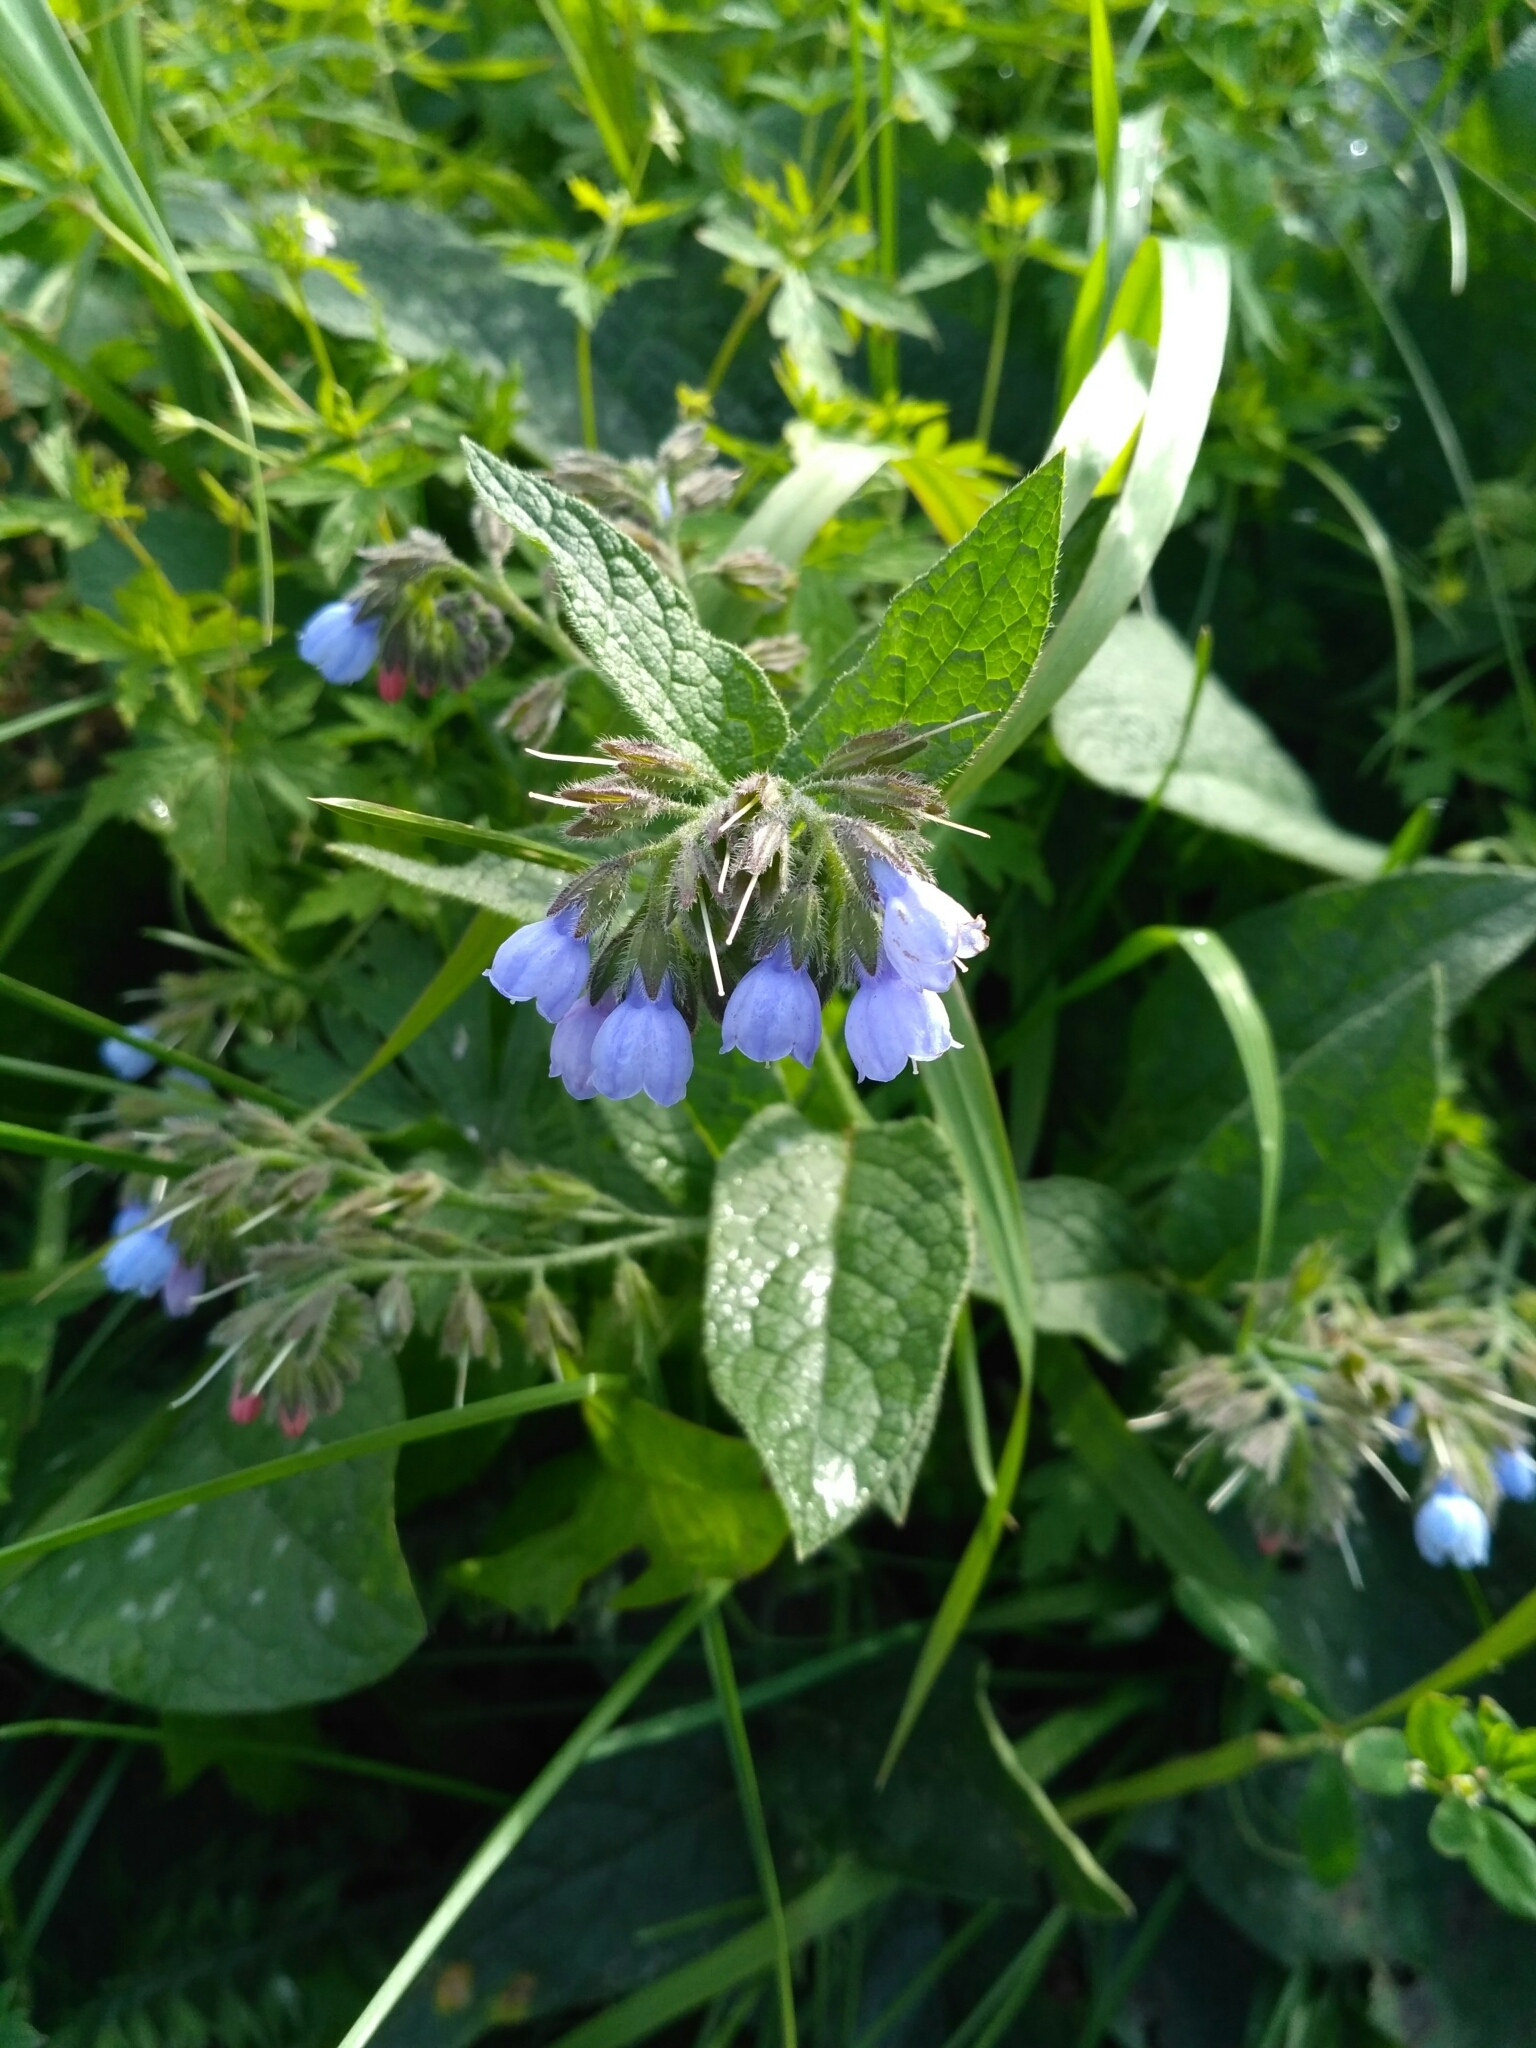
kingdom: Plantae
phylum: Tracheophyta
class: Magnoliopsida
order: Boraginales
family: Boraginaceae
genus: Symphytum
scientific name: Symphytum caucasicum
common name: Caucasian comfrey
